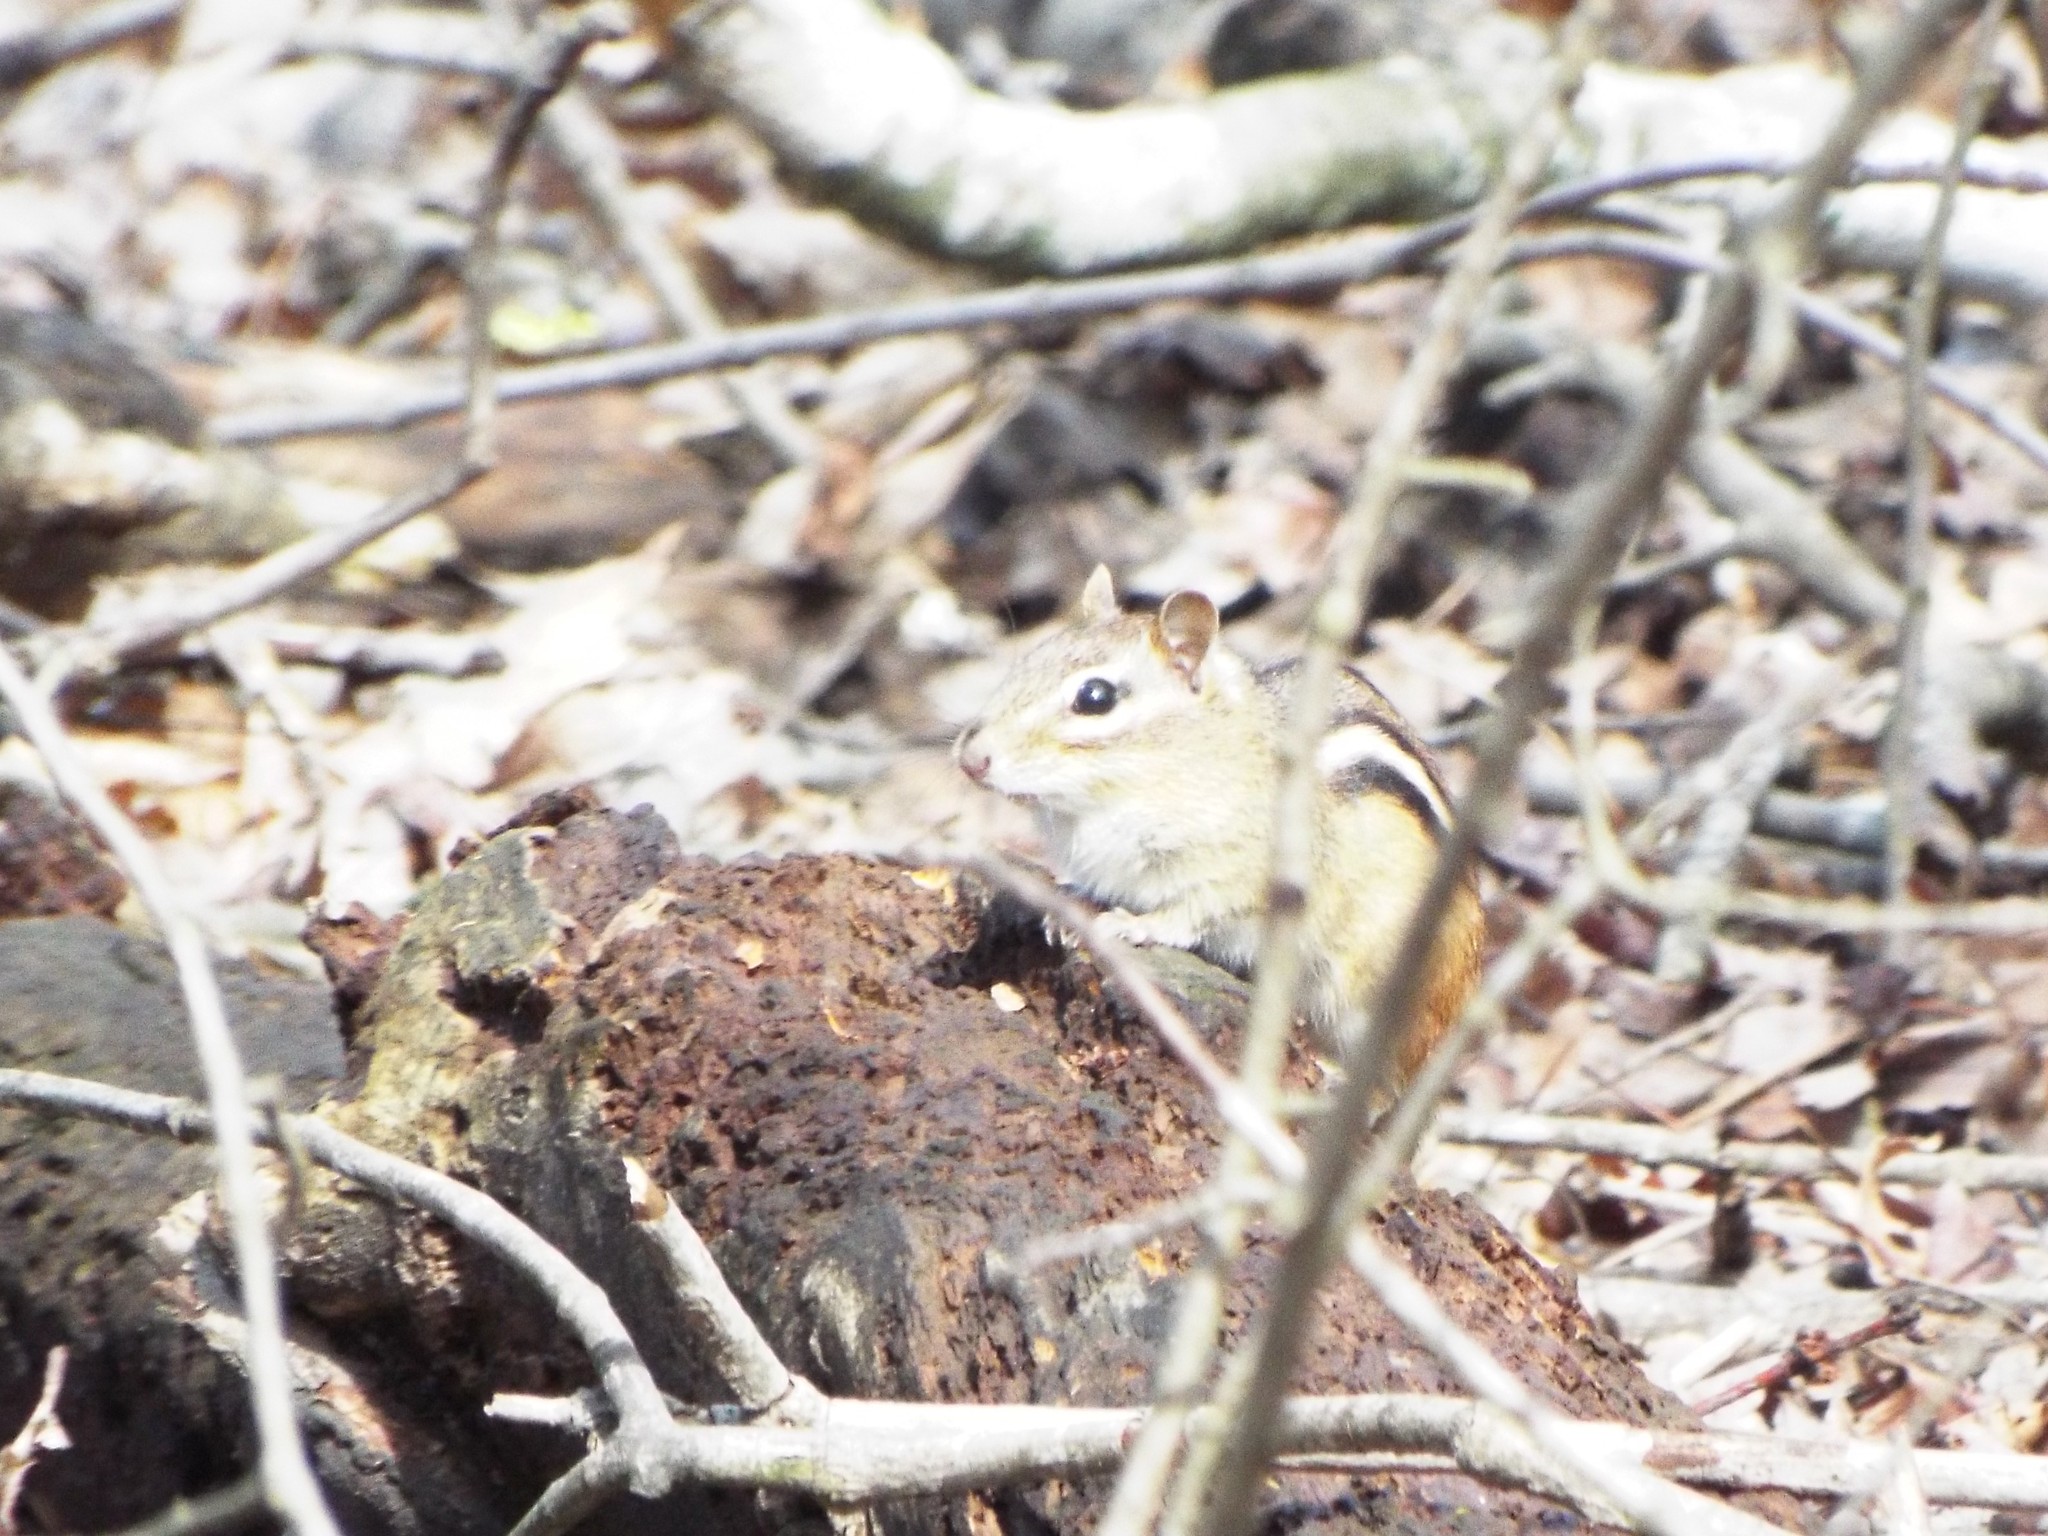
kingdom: Animalia
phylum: Chordata
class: Mammalia
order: Rodentia
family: Sciuridae
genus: Tamias
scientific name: Tamias striatus
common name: Eastern chipmunk
